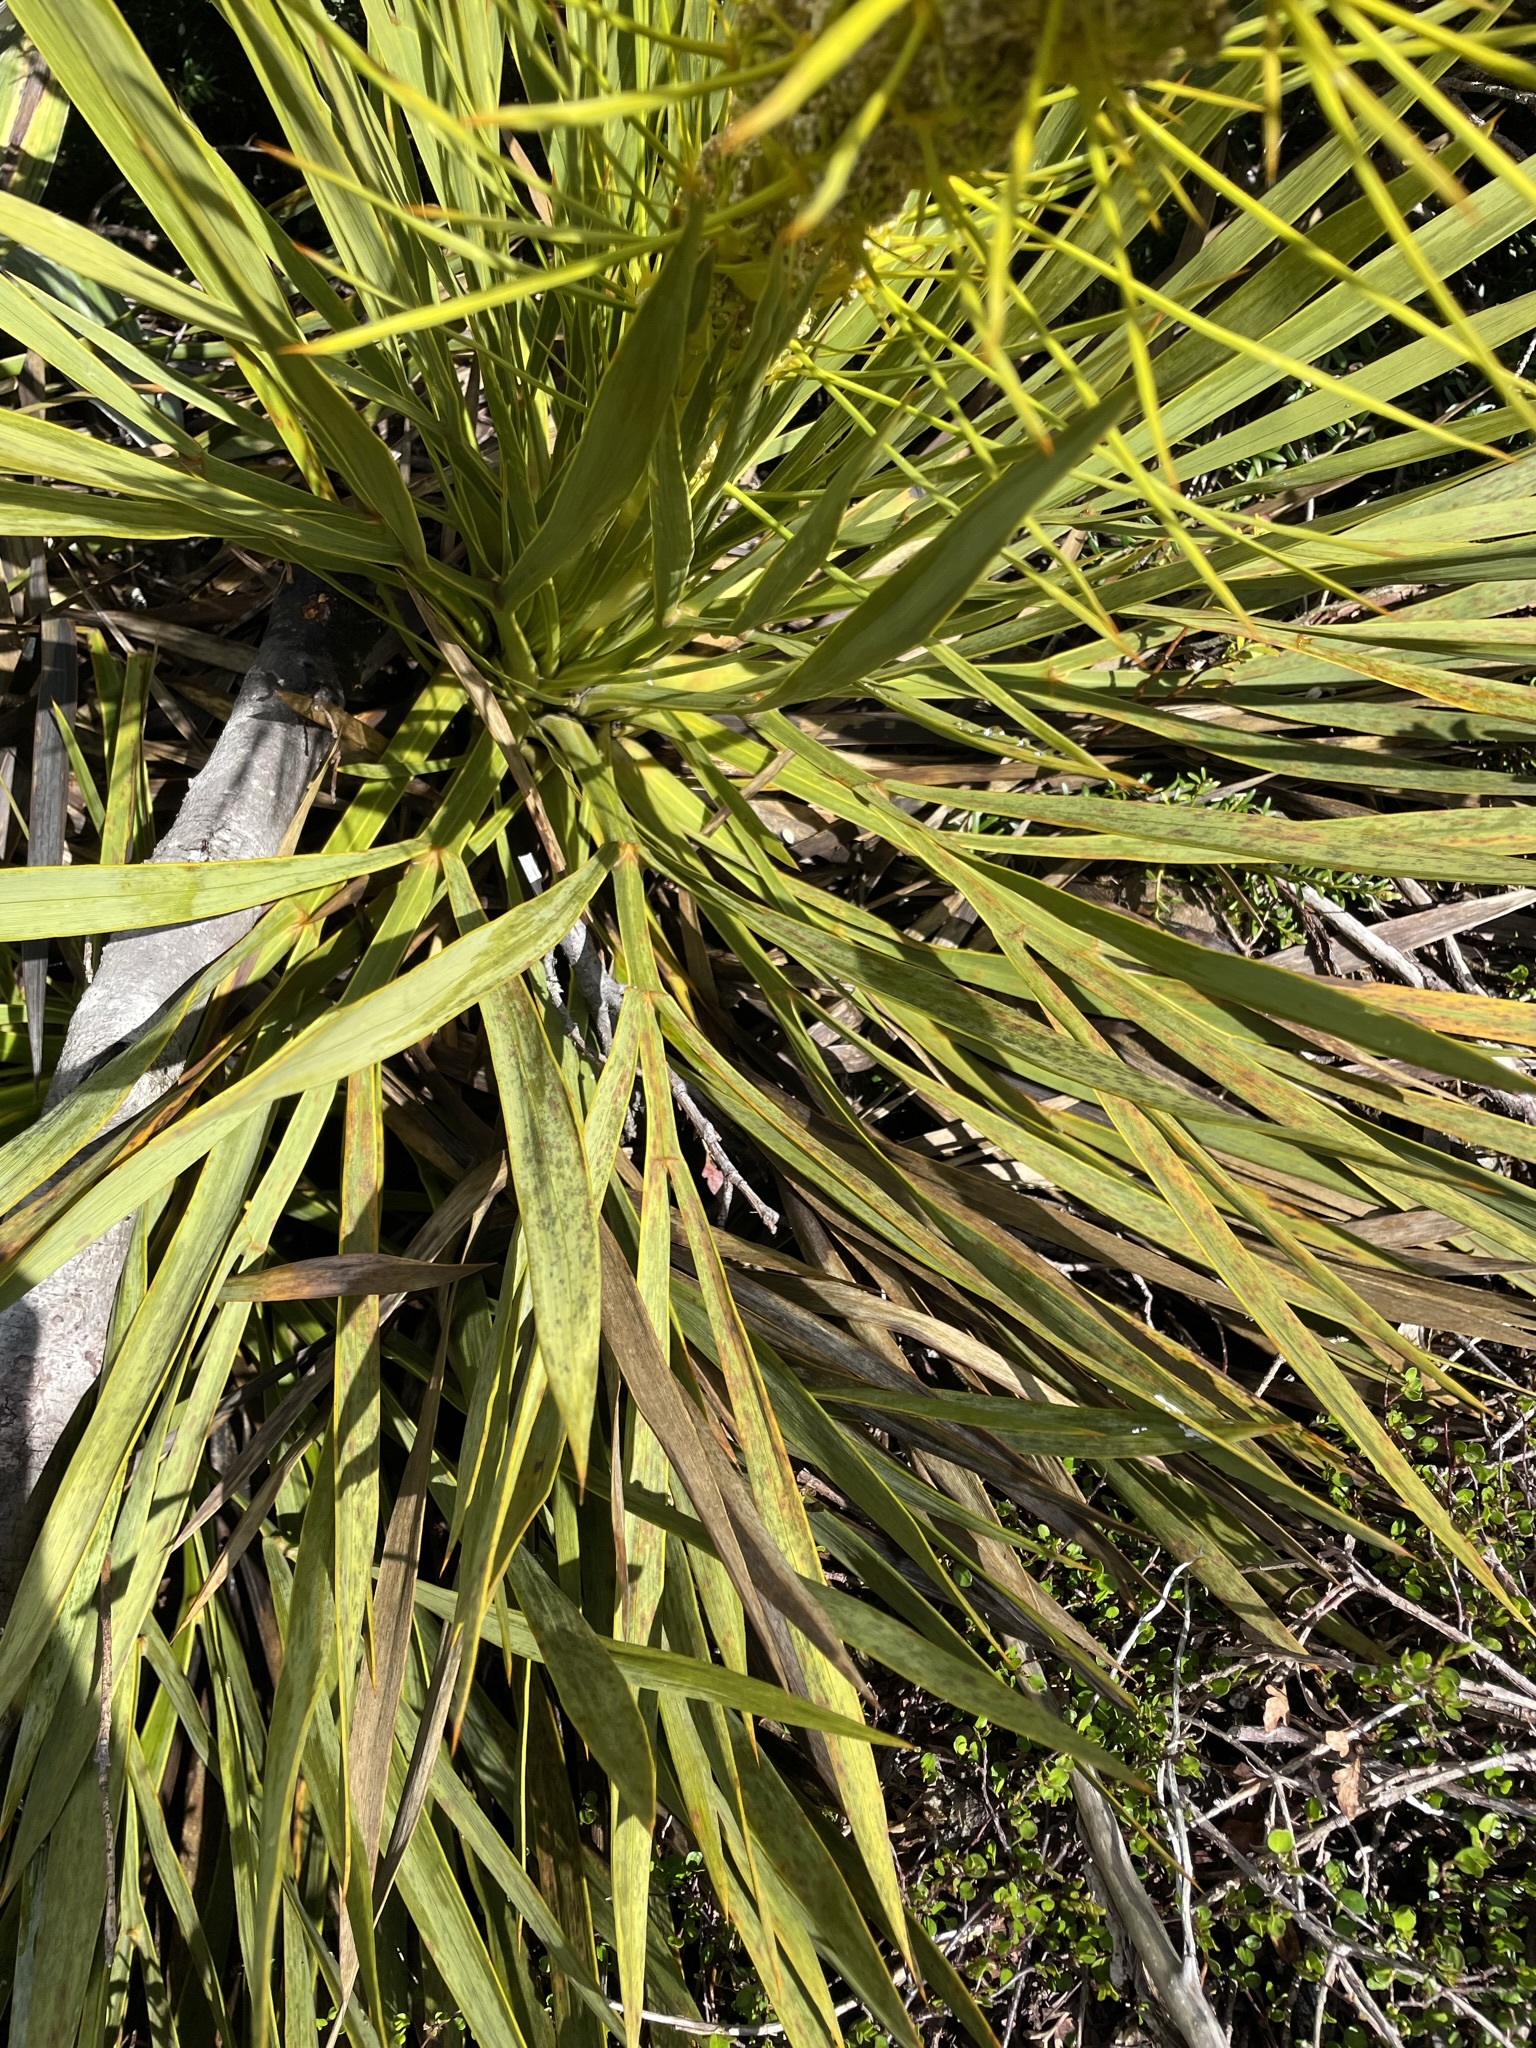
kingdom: Plantae
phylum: Tracheophyta
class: Magnoliopsida
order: Apiales
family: Apiaceae
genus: Aciphylla
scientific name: Aciphylla aurea
